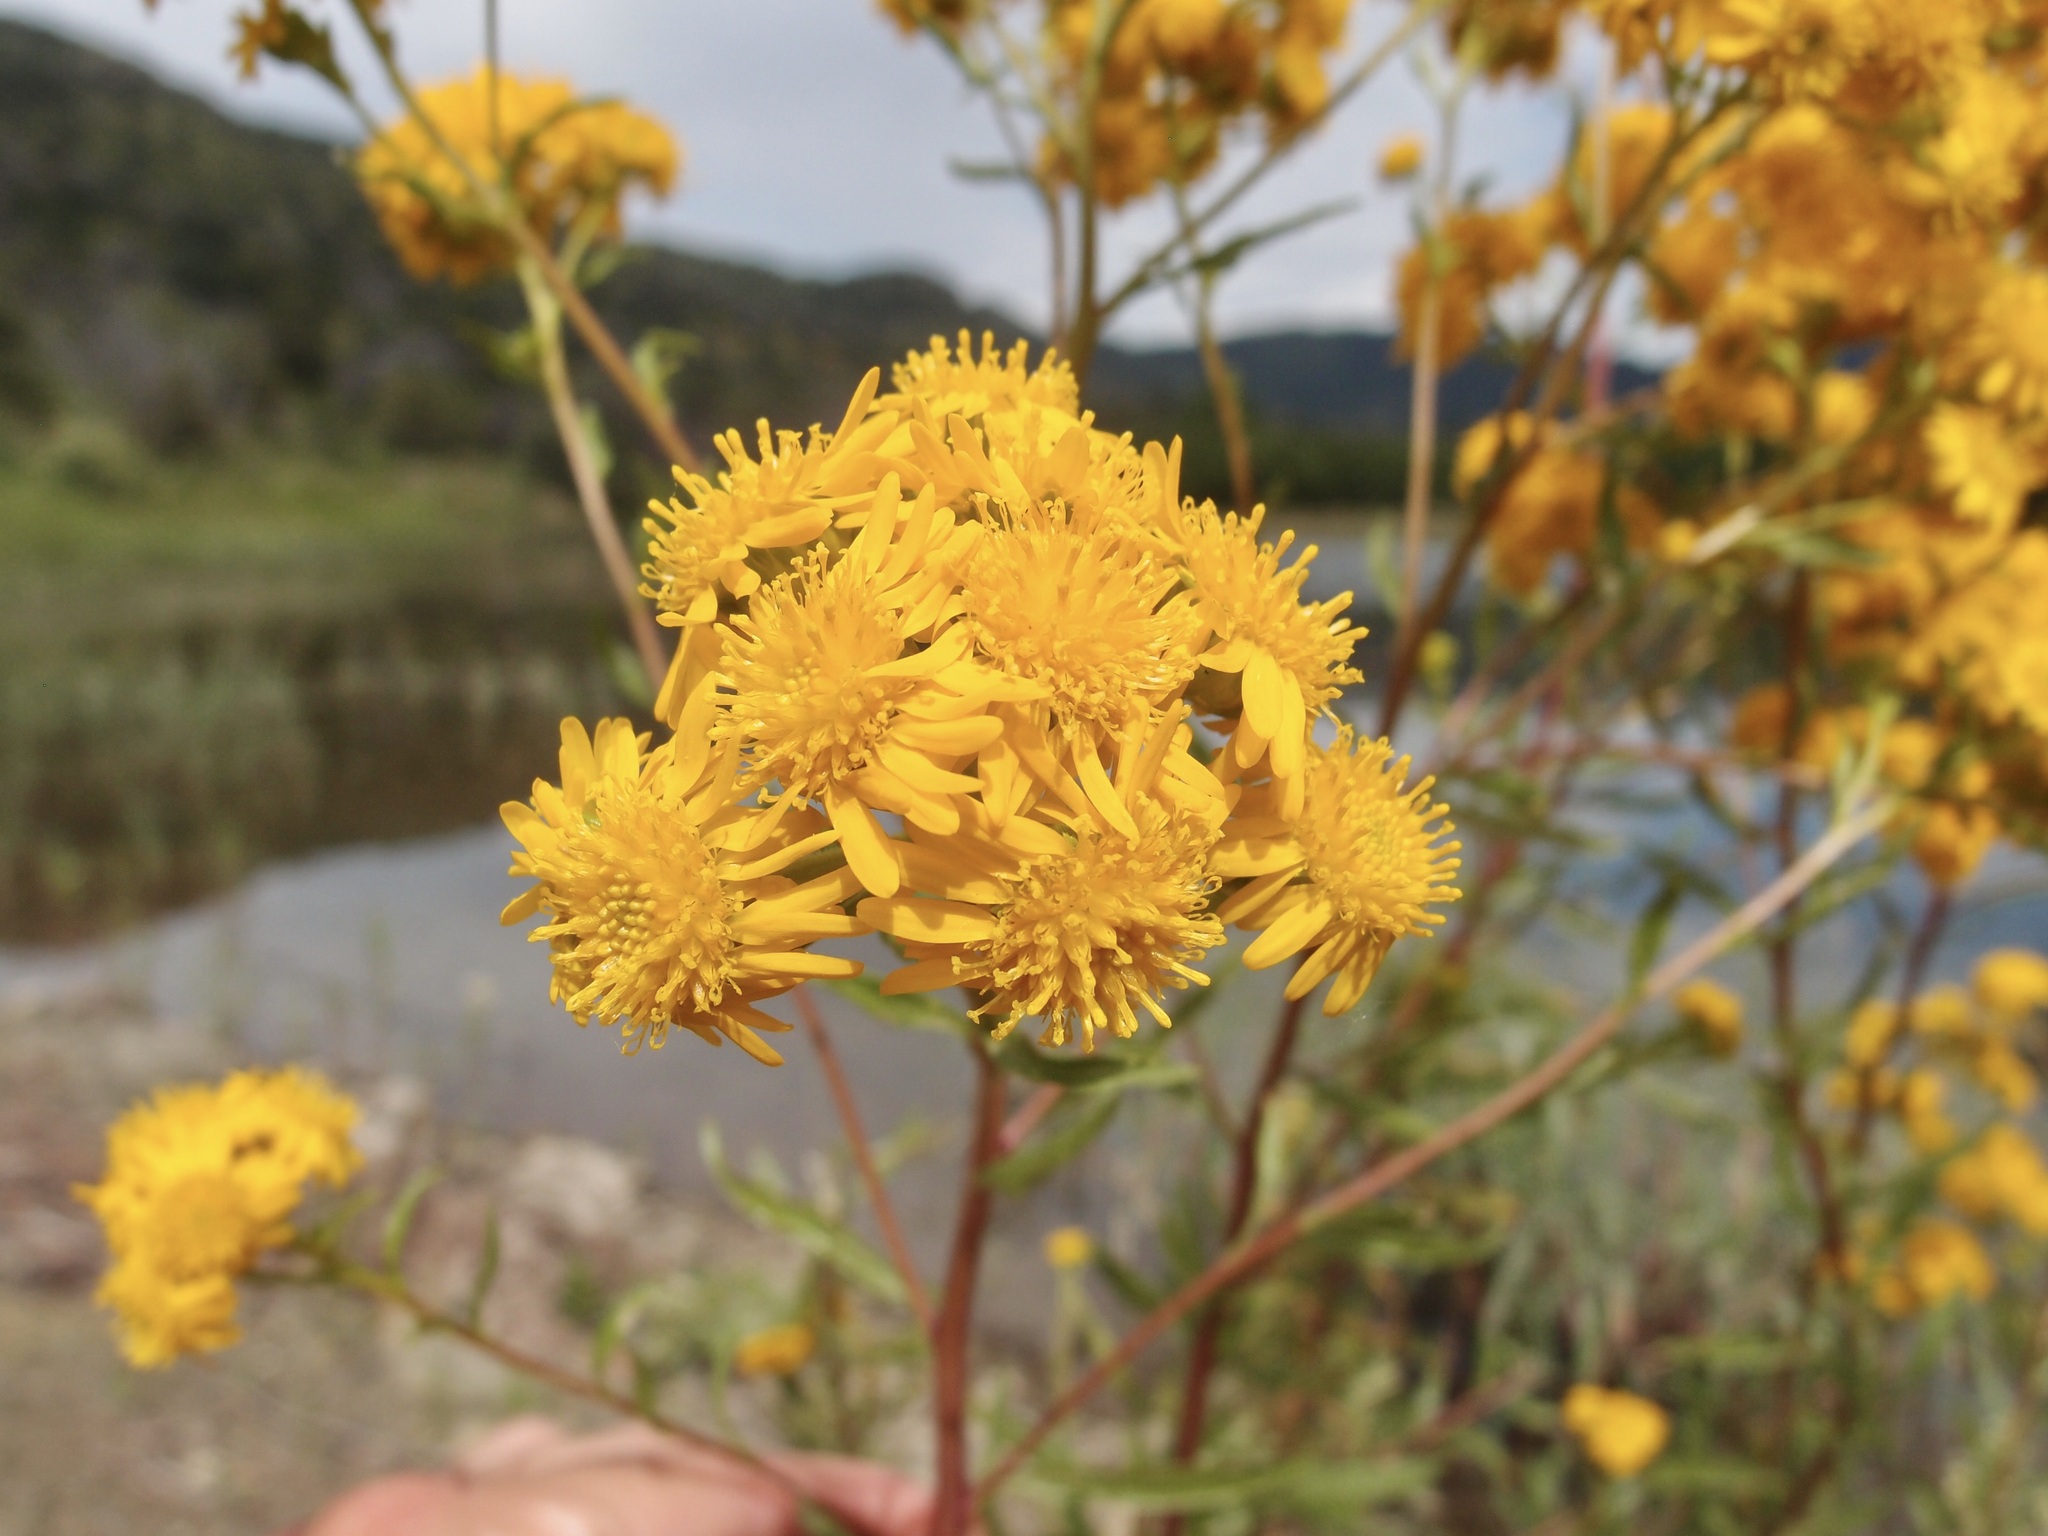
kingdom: Plantae
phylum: Tracheophyta
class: Magnoliopsida
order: Asterales
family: Asteraceae
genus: Xanthocephalum
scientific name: Xanthocephalum gymnospermoides
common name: San pedro matchweed
